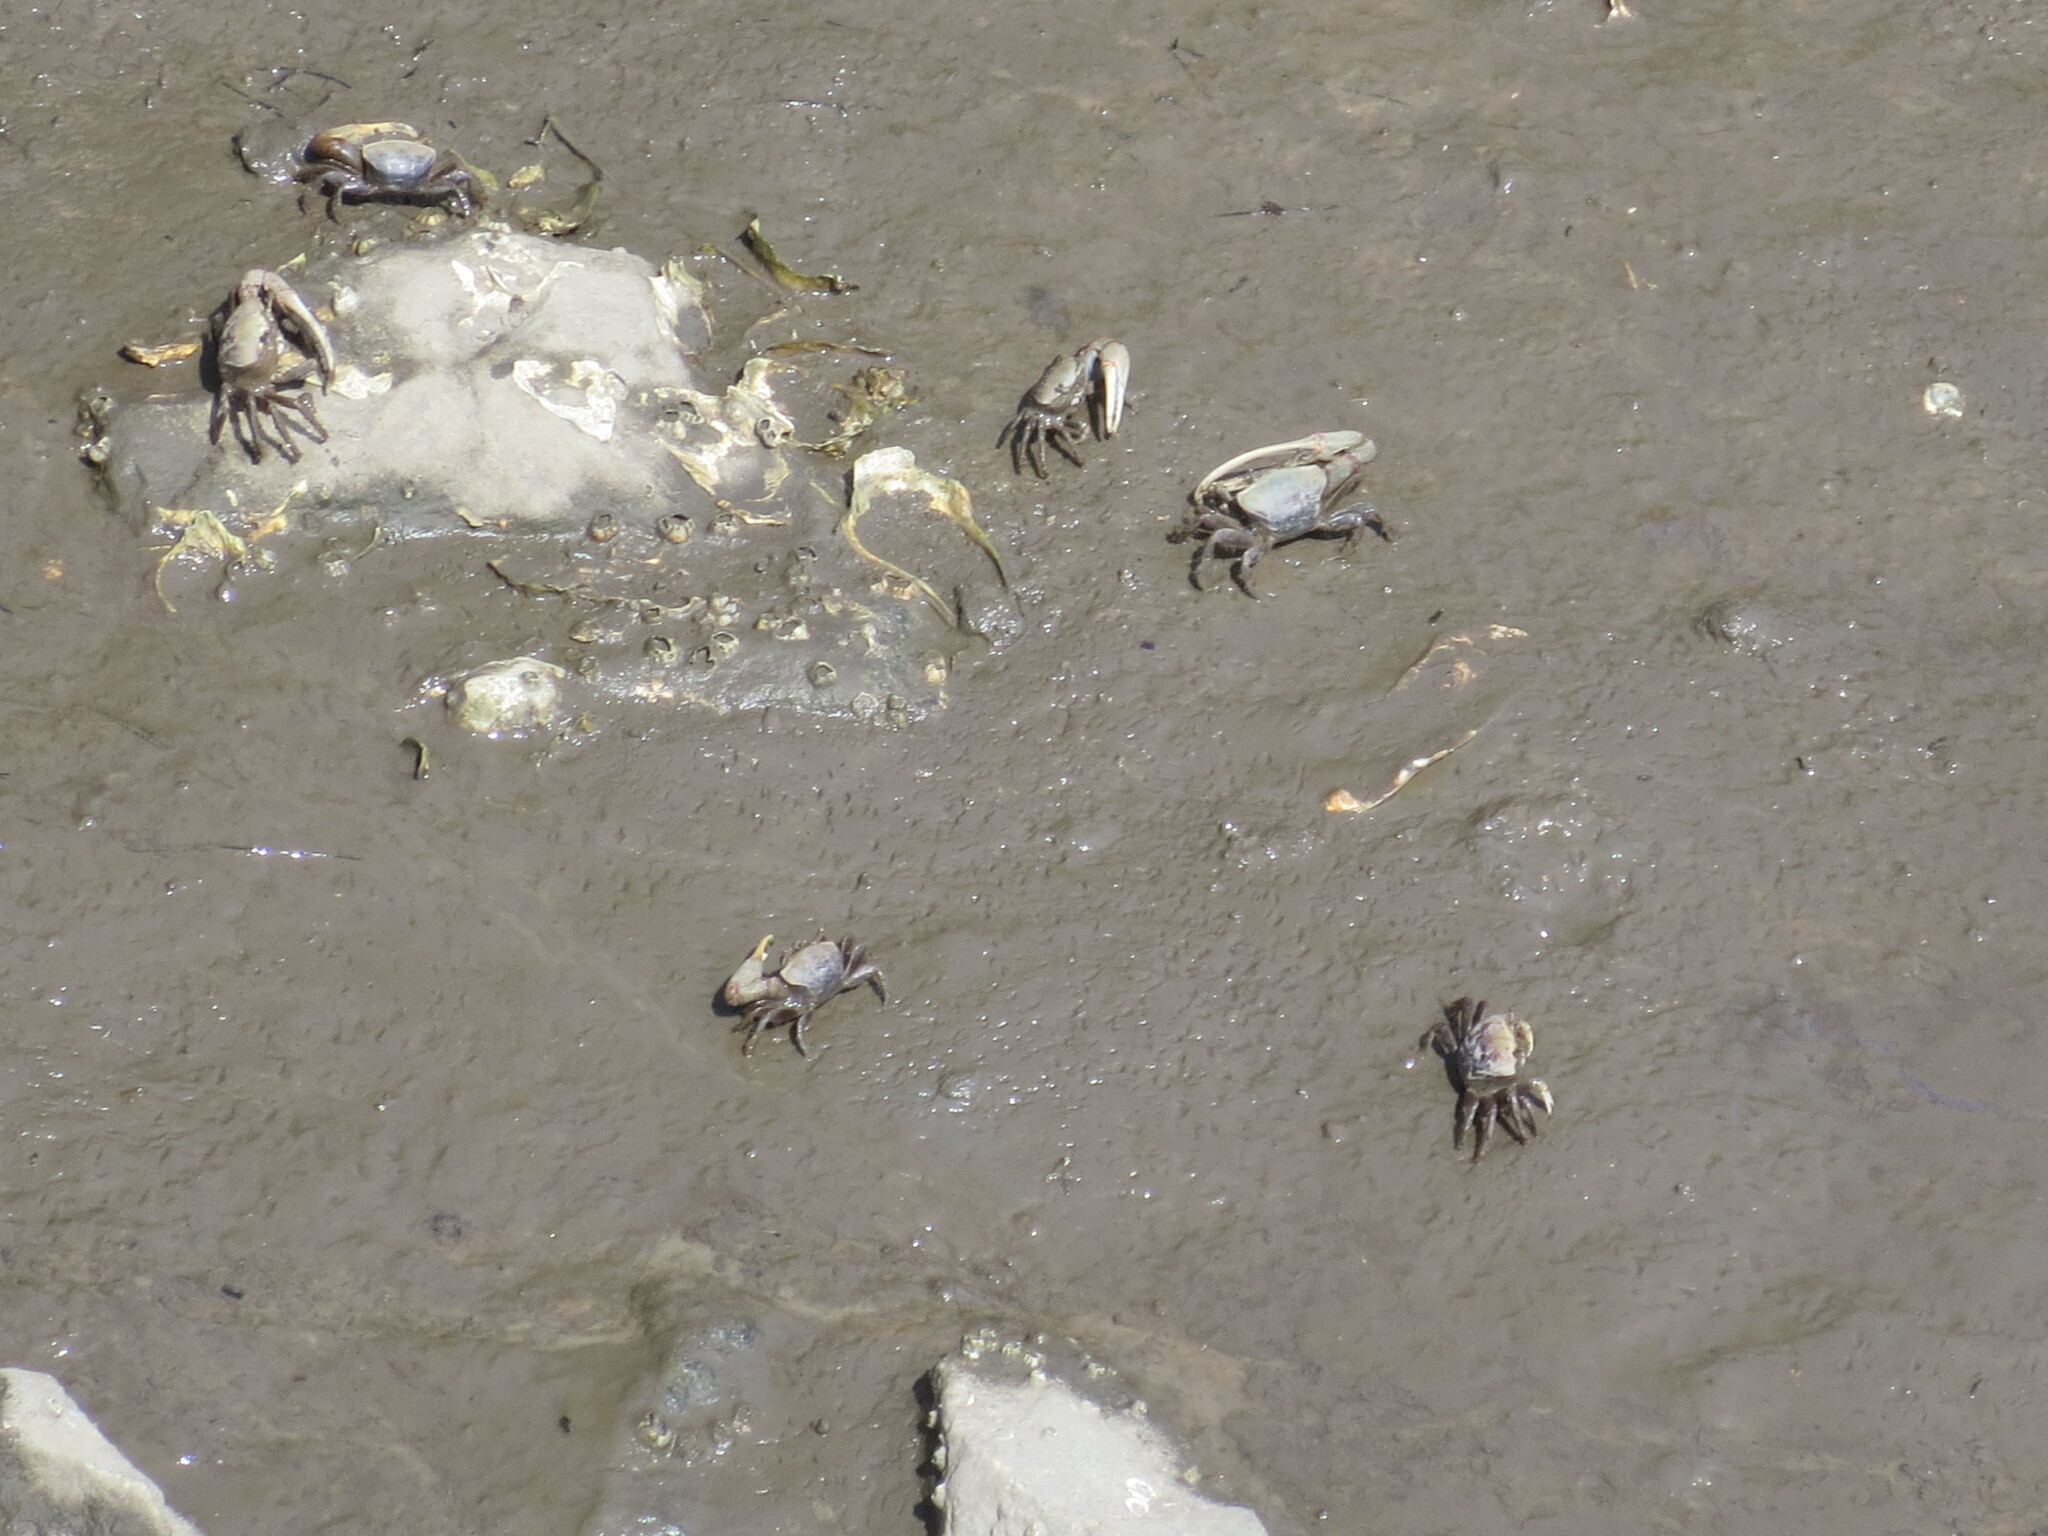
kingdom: Animalia
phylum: Arthropoda
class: Malacostraca
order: Decapoda
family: Ocypodidae
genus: Minuca
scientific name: Minuca minax
